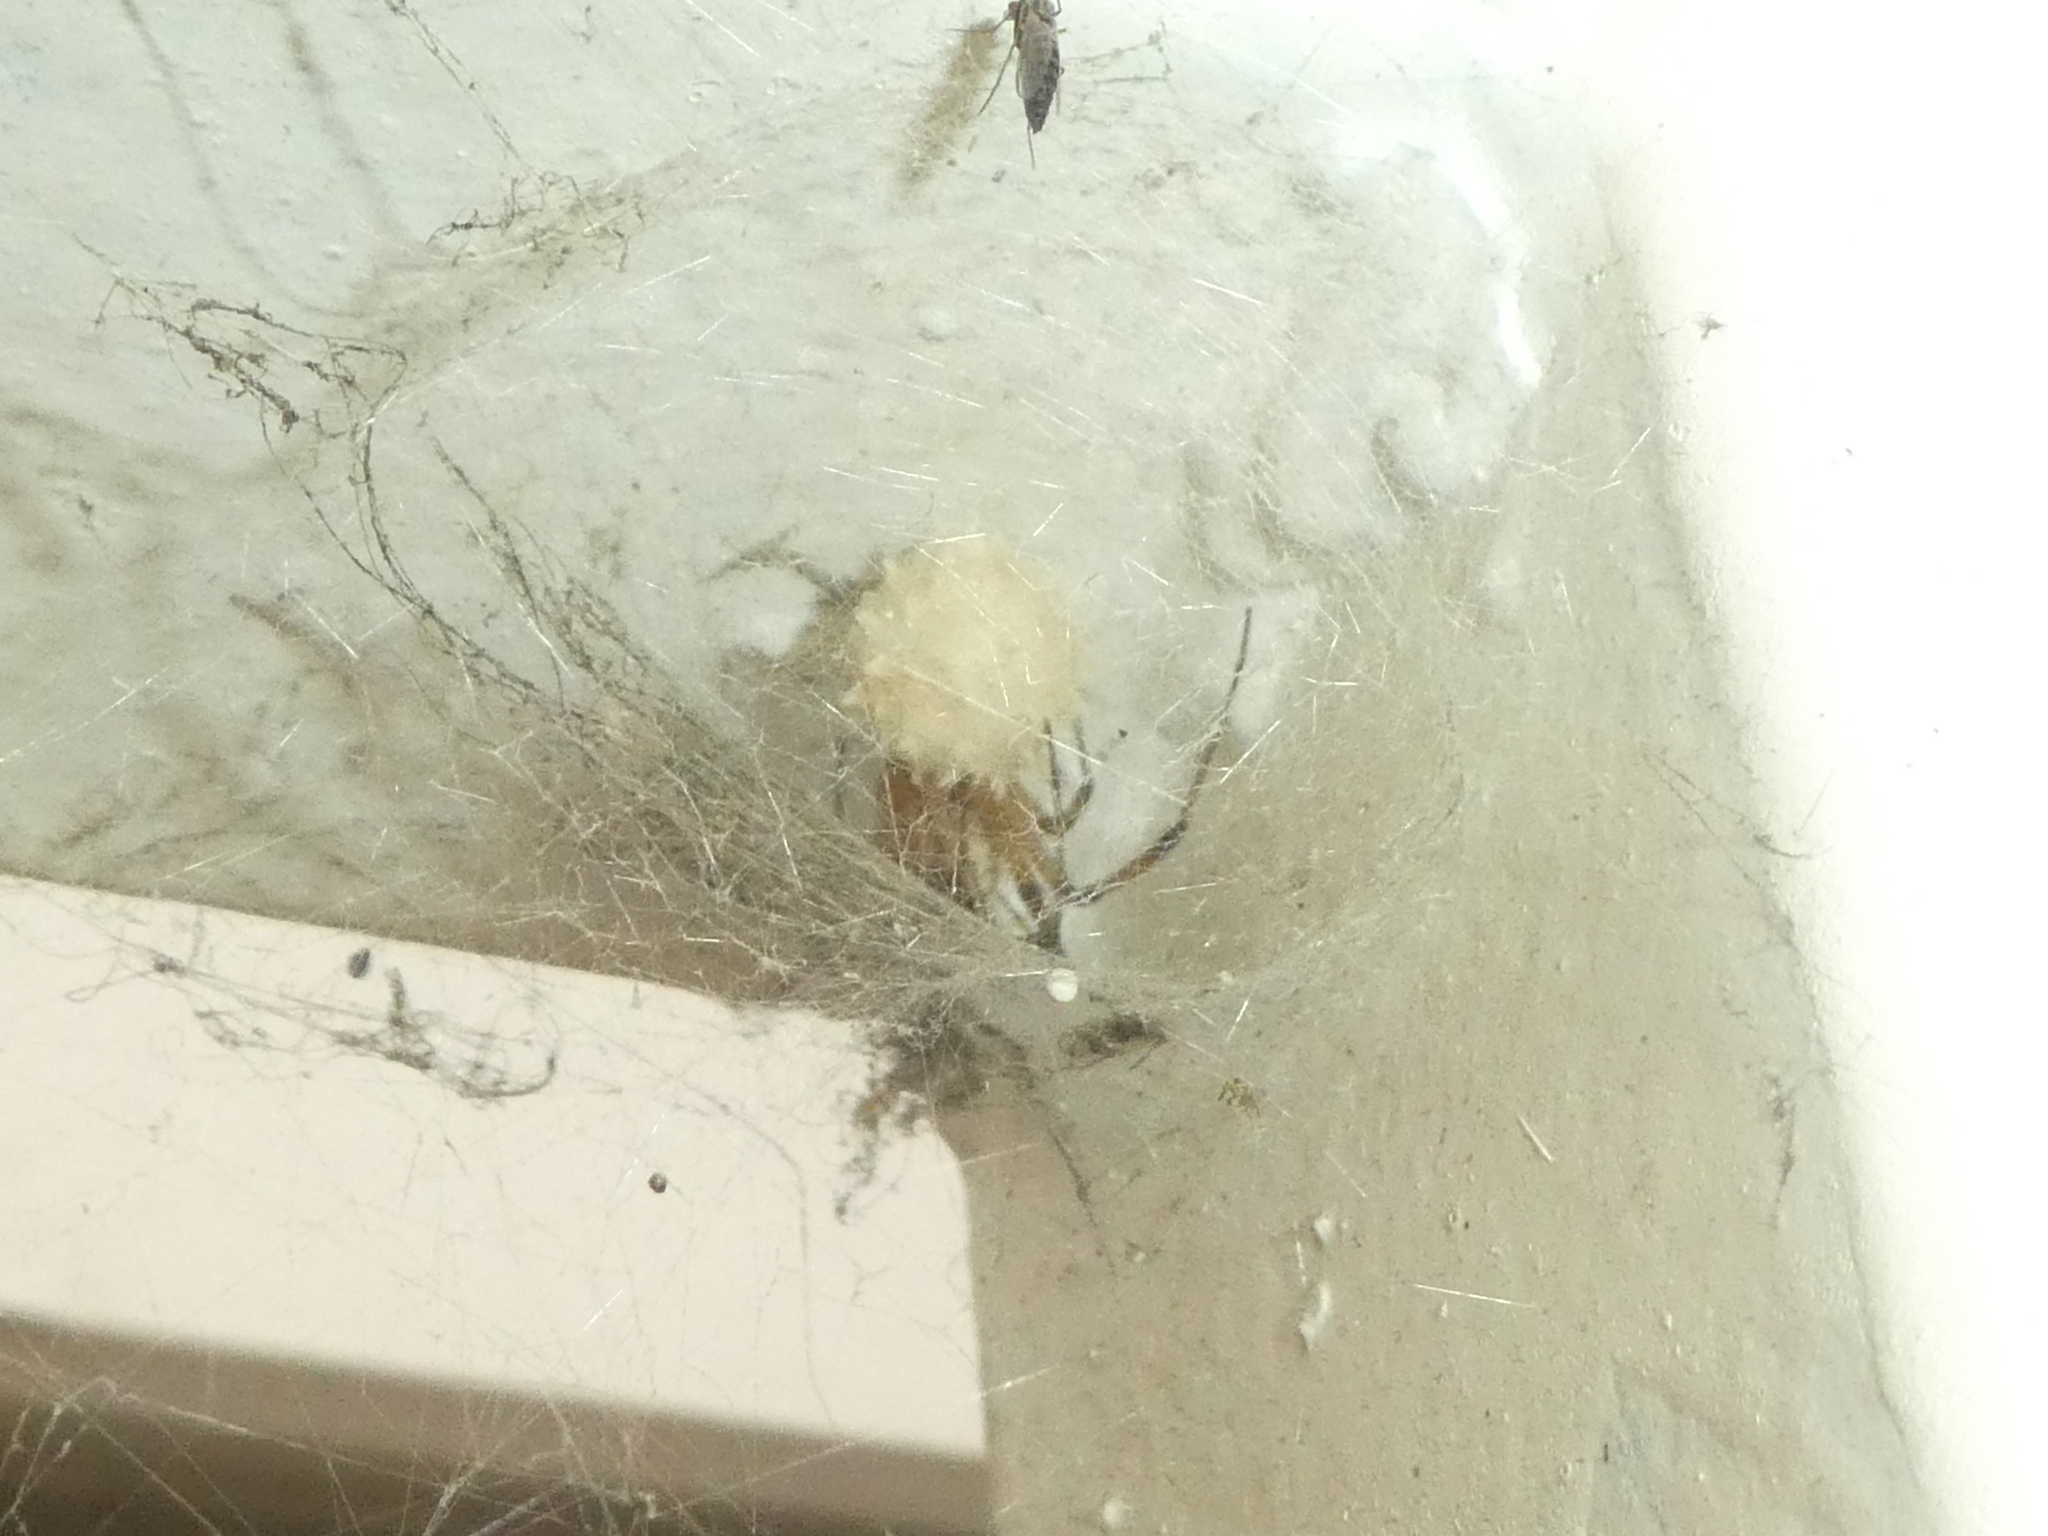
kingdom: Animalia
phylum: Arthropoda
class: Arachnida
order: Araneae
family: Theridiidae
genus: Latrodectus
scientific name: Latrodectus geometricus
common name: Brown widow spider
